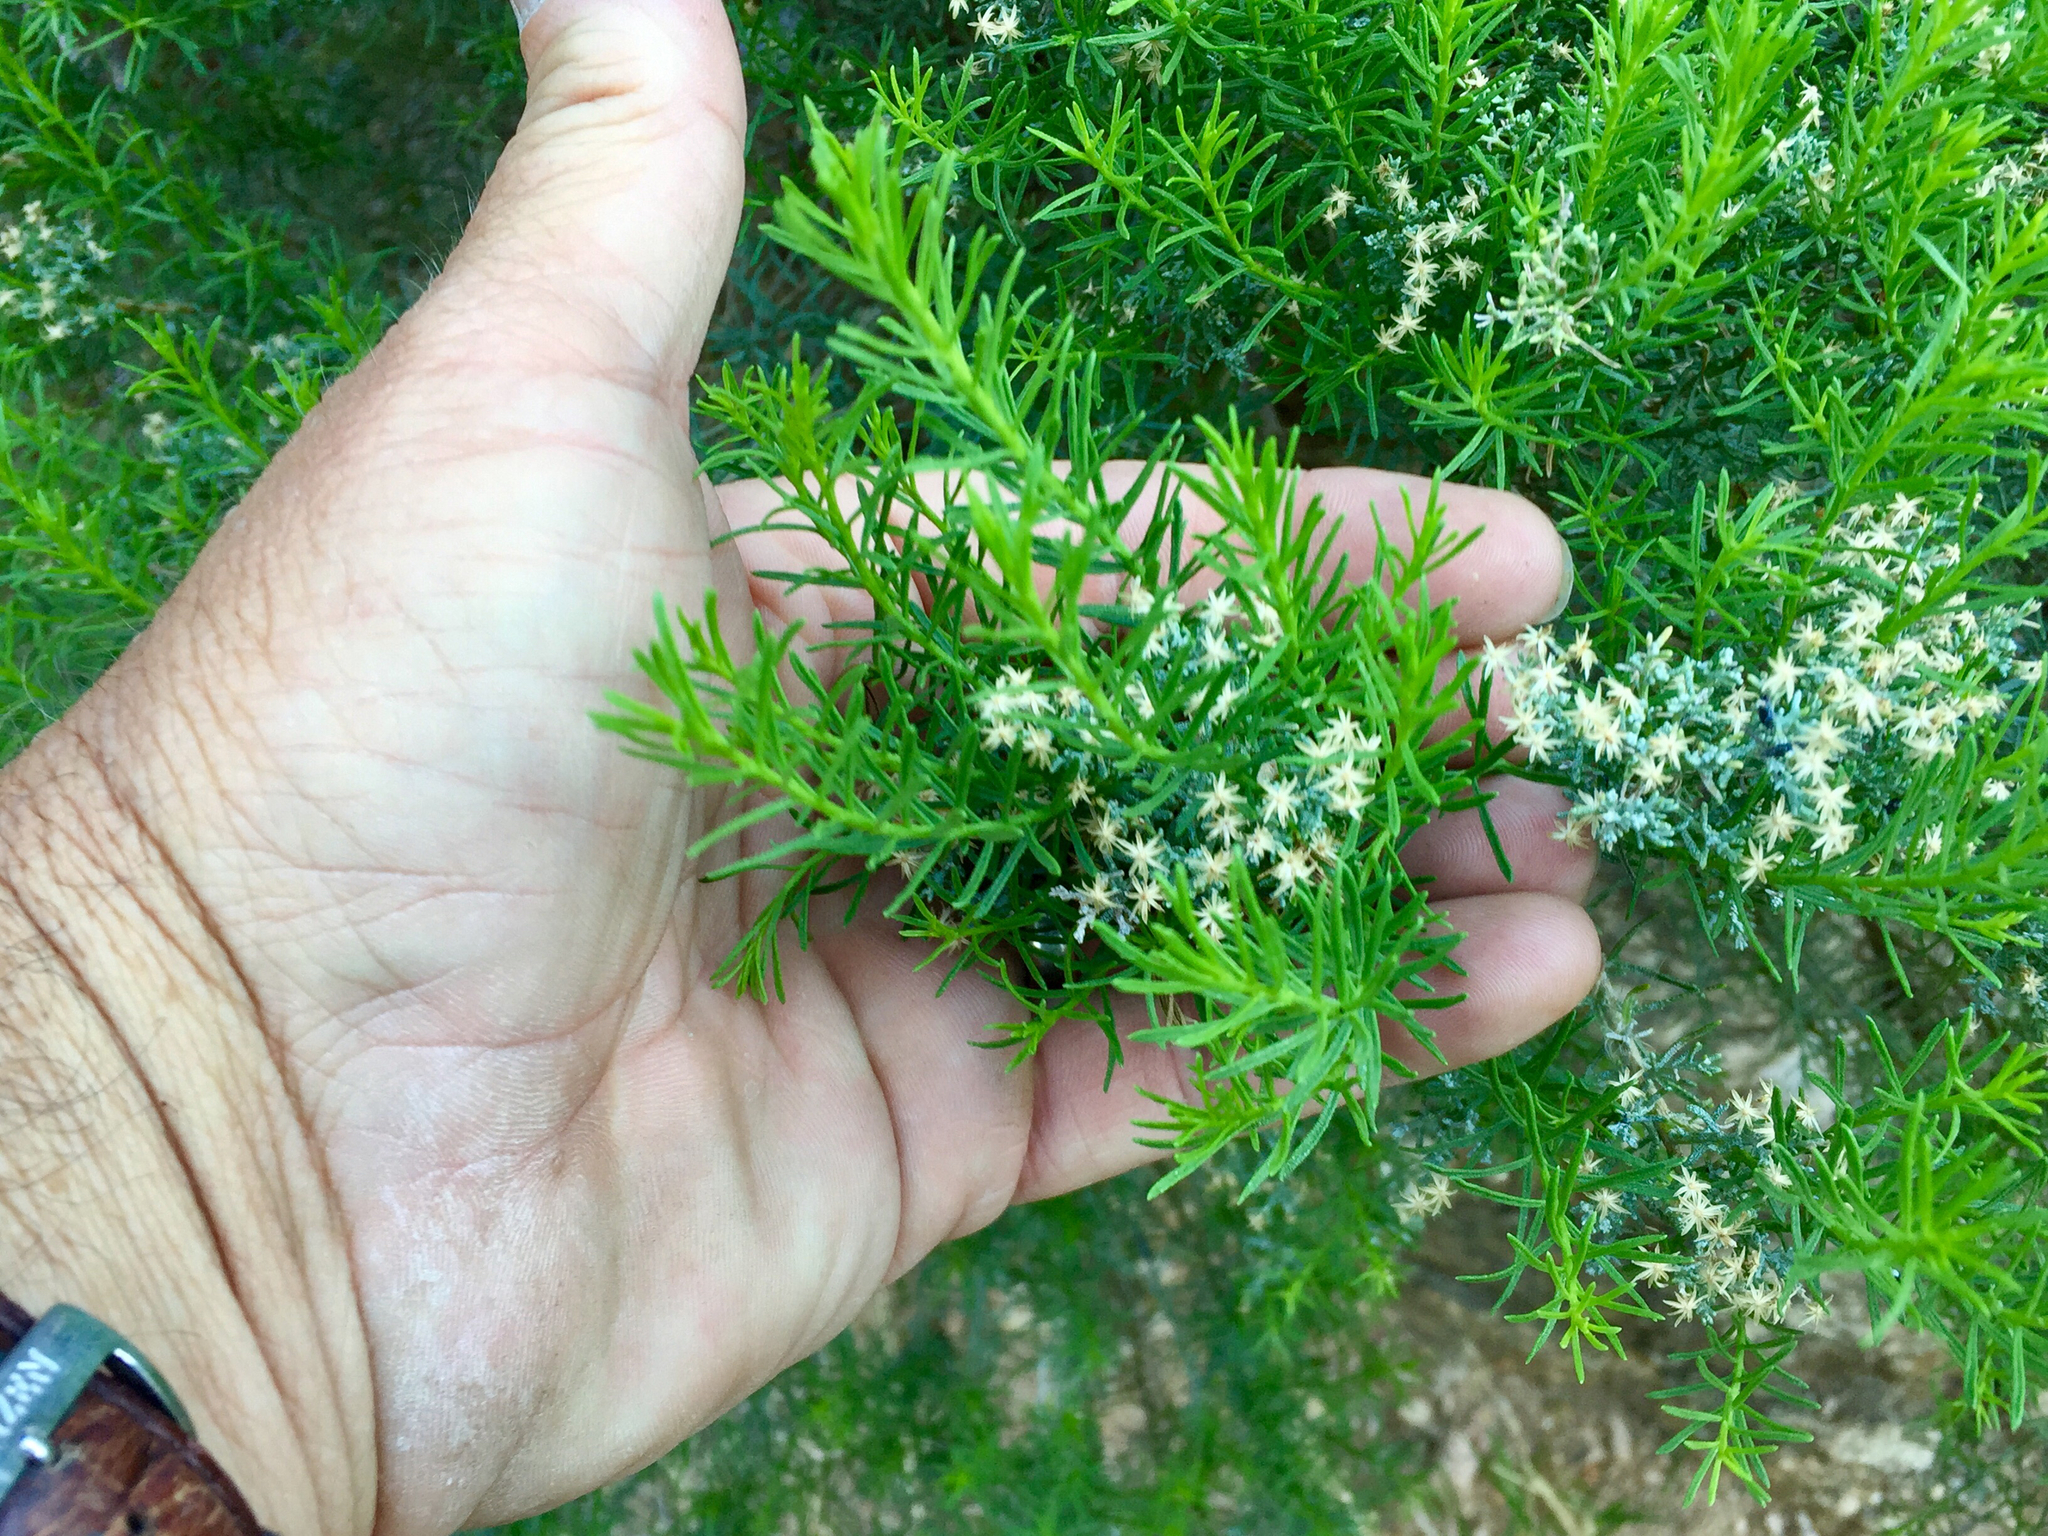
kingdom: Plantae
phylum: Tracheophyta
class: Magnoliopsida
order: Asterales
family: Asteraceae
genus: Ericameria
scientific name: Ericameria laricifolia
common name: Turpentine-bush
